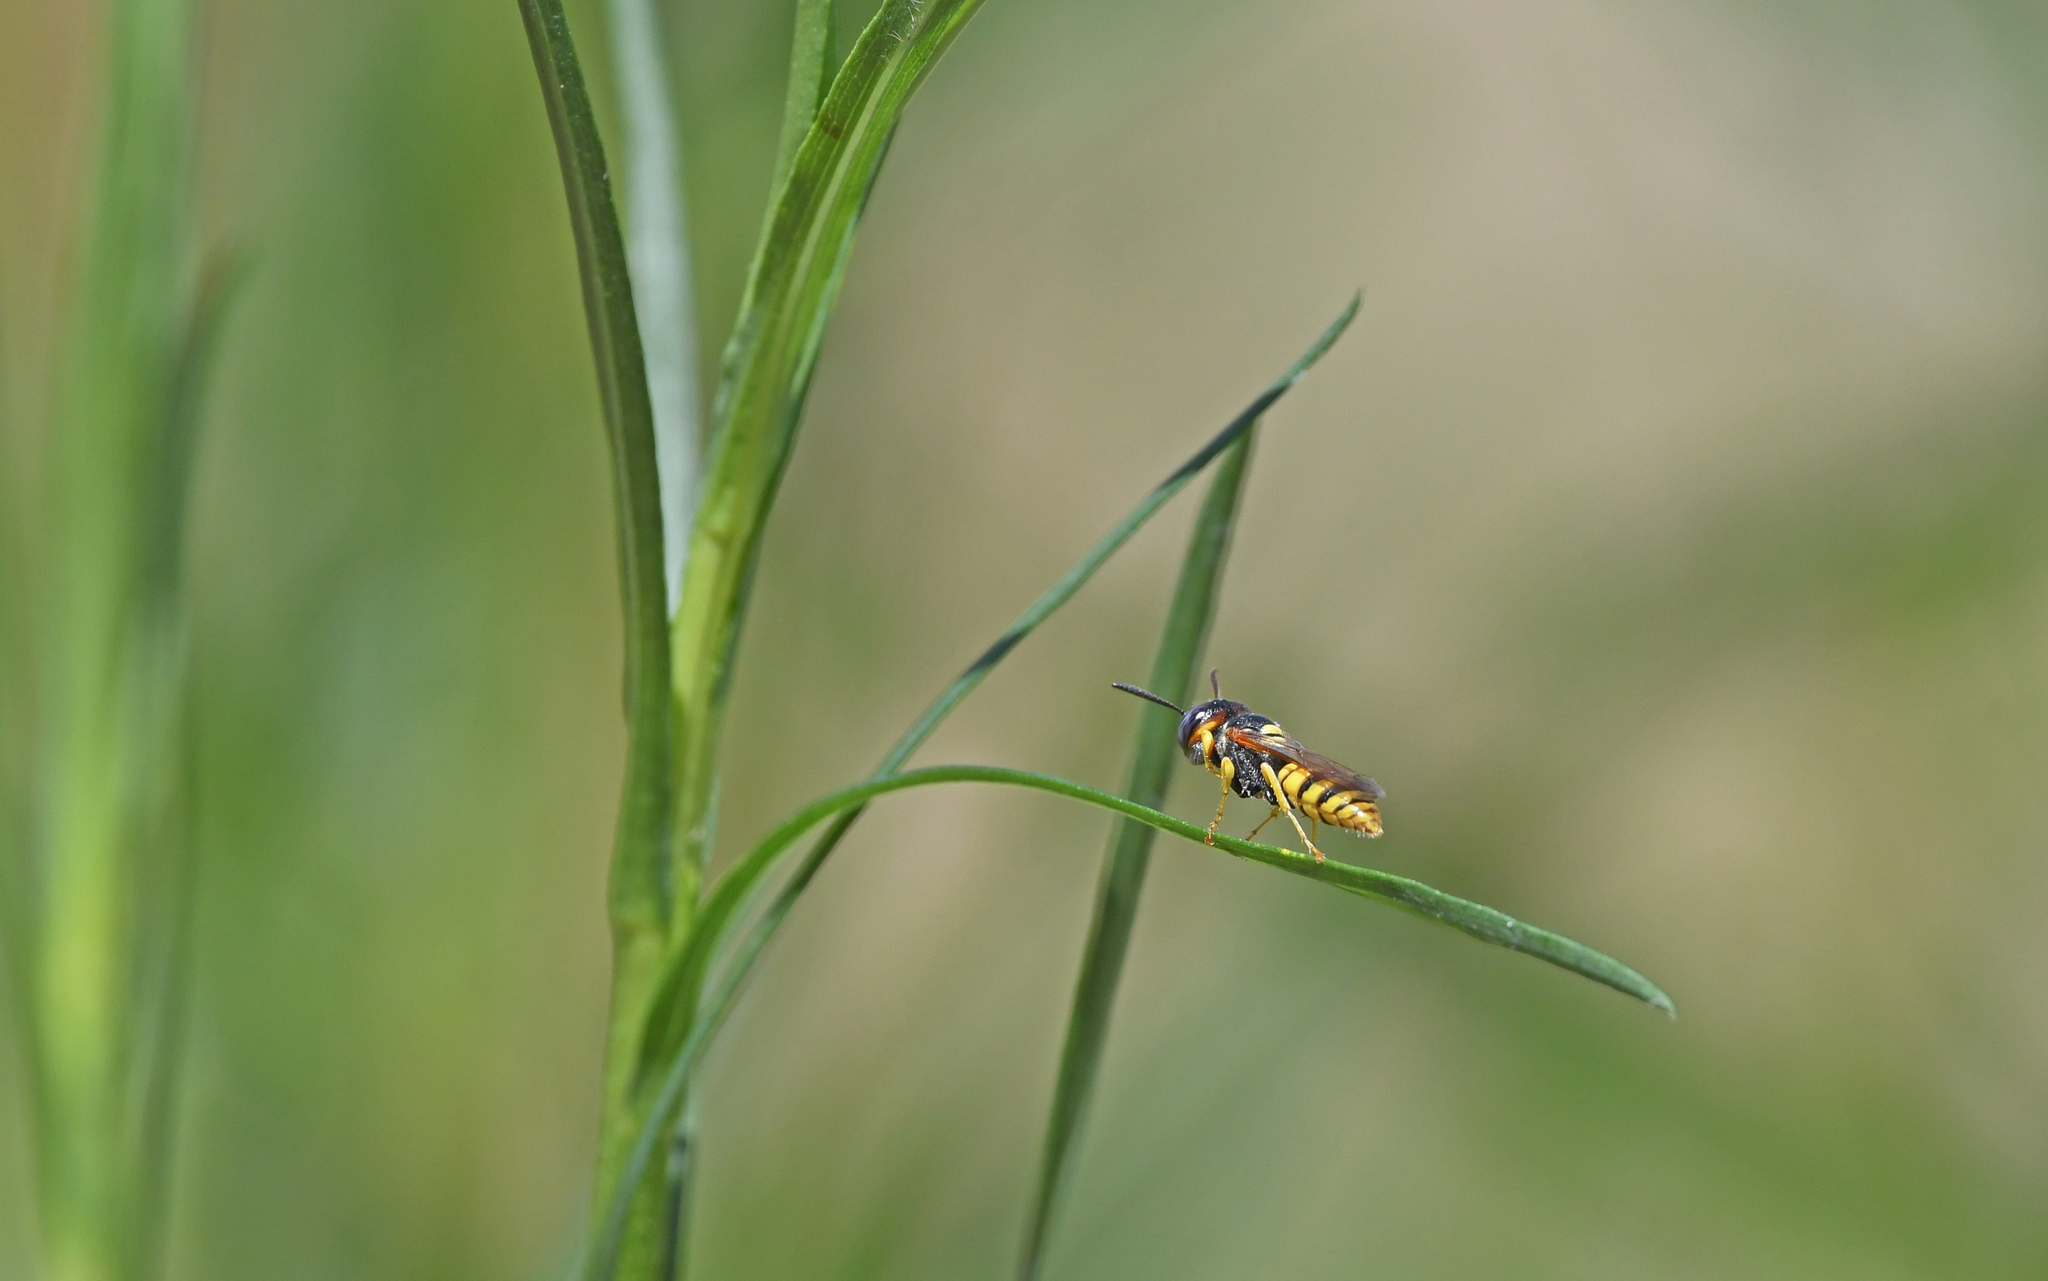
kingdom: Animalia
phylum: Arthropoda
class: Insecta
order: Hymenoptera
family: Crabronidae
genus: Philanthus
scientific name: Philanthus triangulum
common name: Bee wolf
